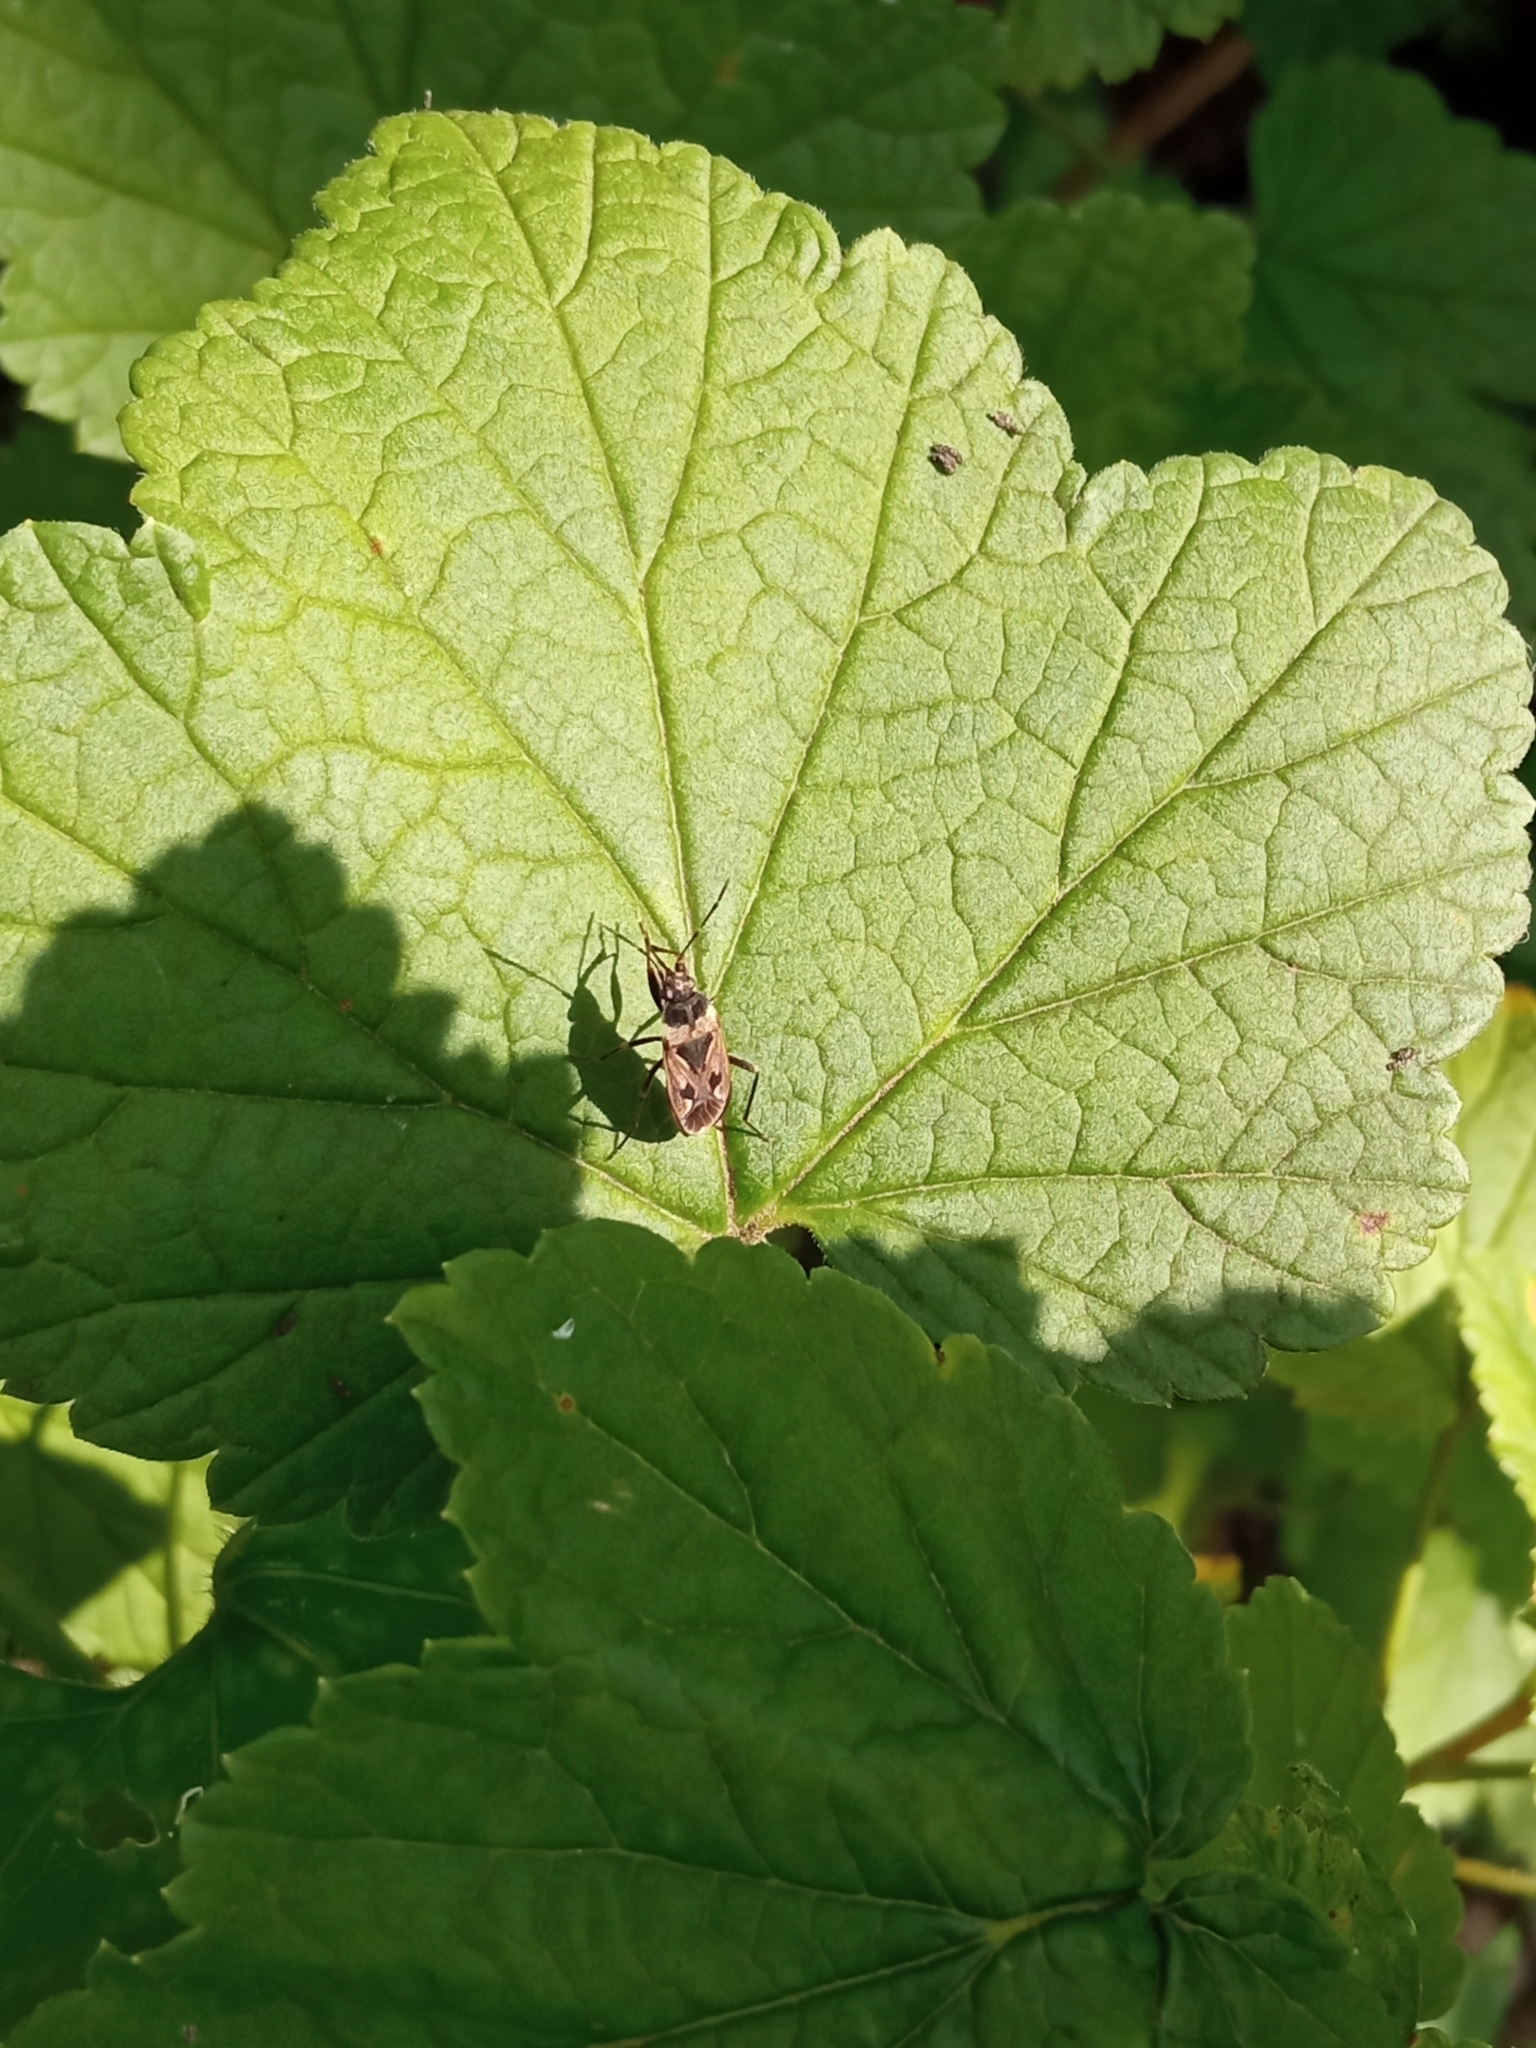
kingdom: Animalia
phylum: Arthropoda
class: Insecta
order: Hemiptera
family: Rhyparochromidae
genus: Rhyparochromus
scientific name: Rhyparochromus vulgaris
